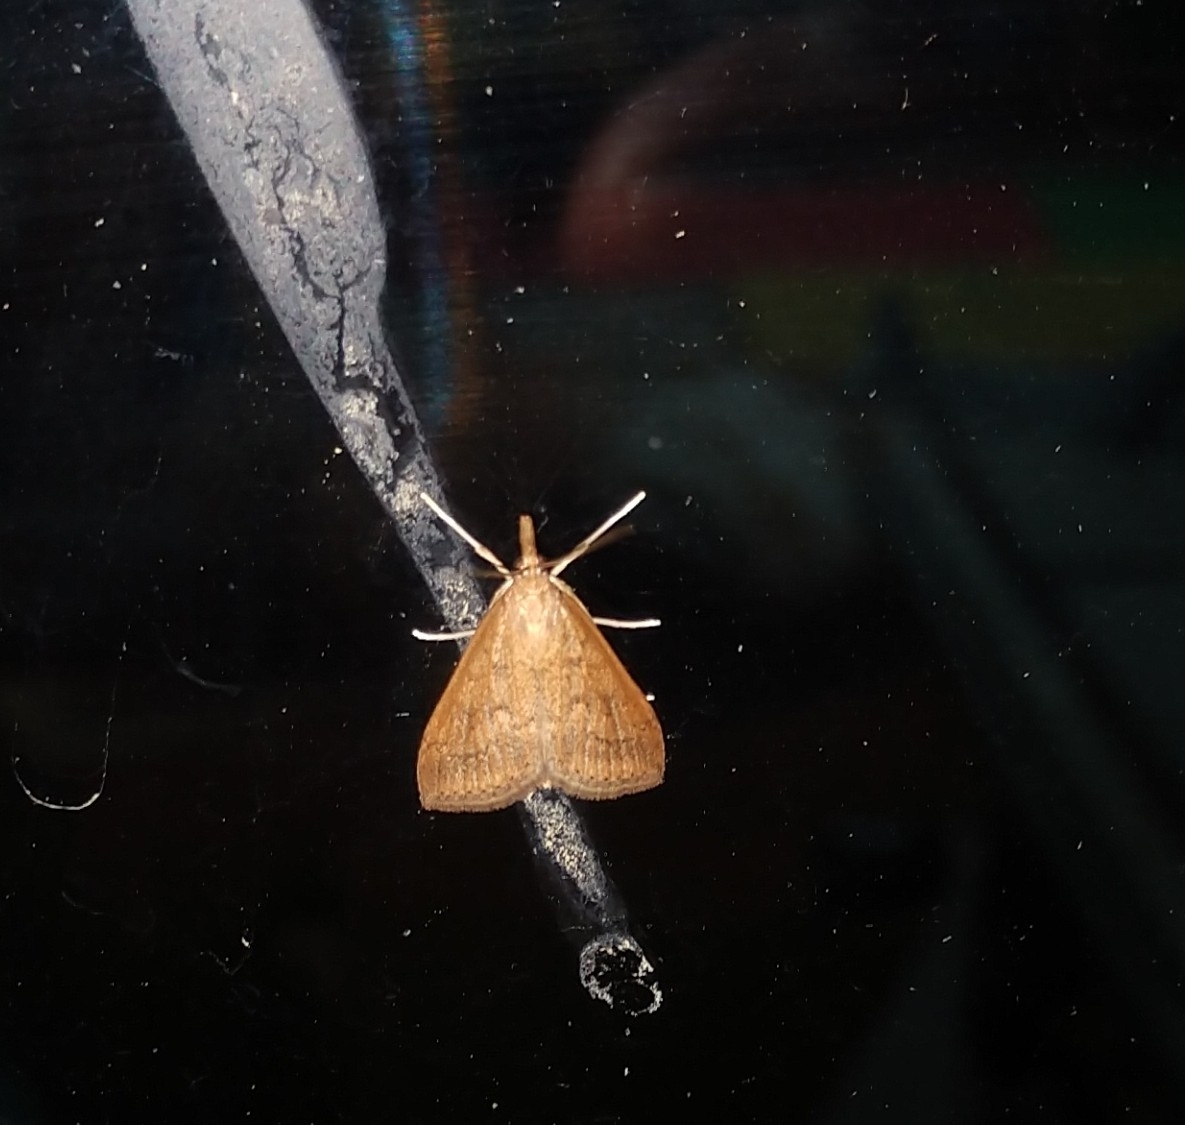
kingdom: Animalia
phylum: Arthropoda
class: Insecta
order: Lepidoptera
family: Crambidae
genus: Udea
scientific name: Udea rubigalis
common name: Celery leaftier moth
